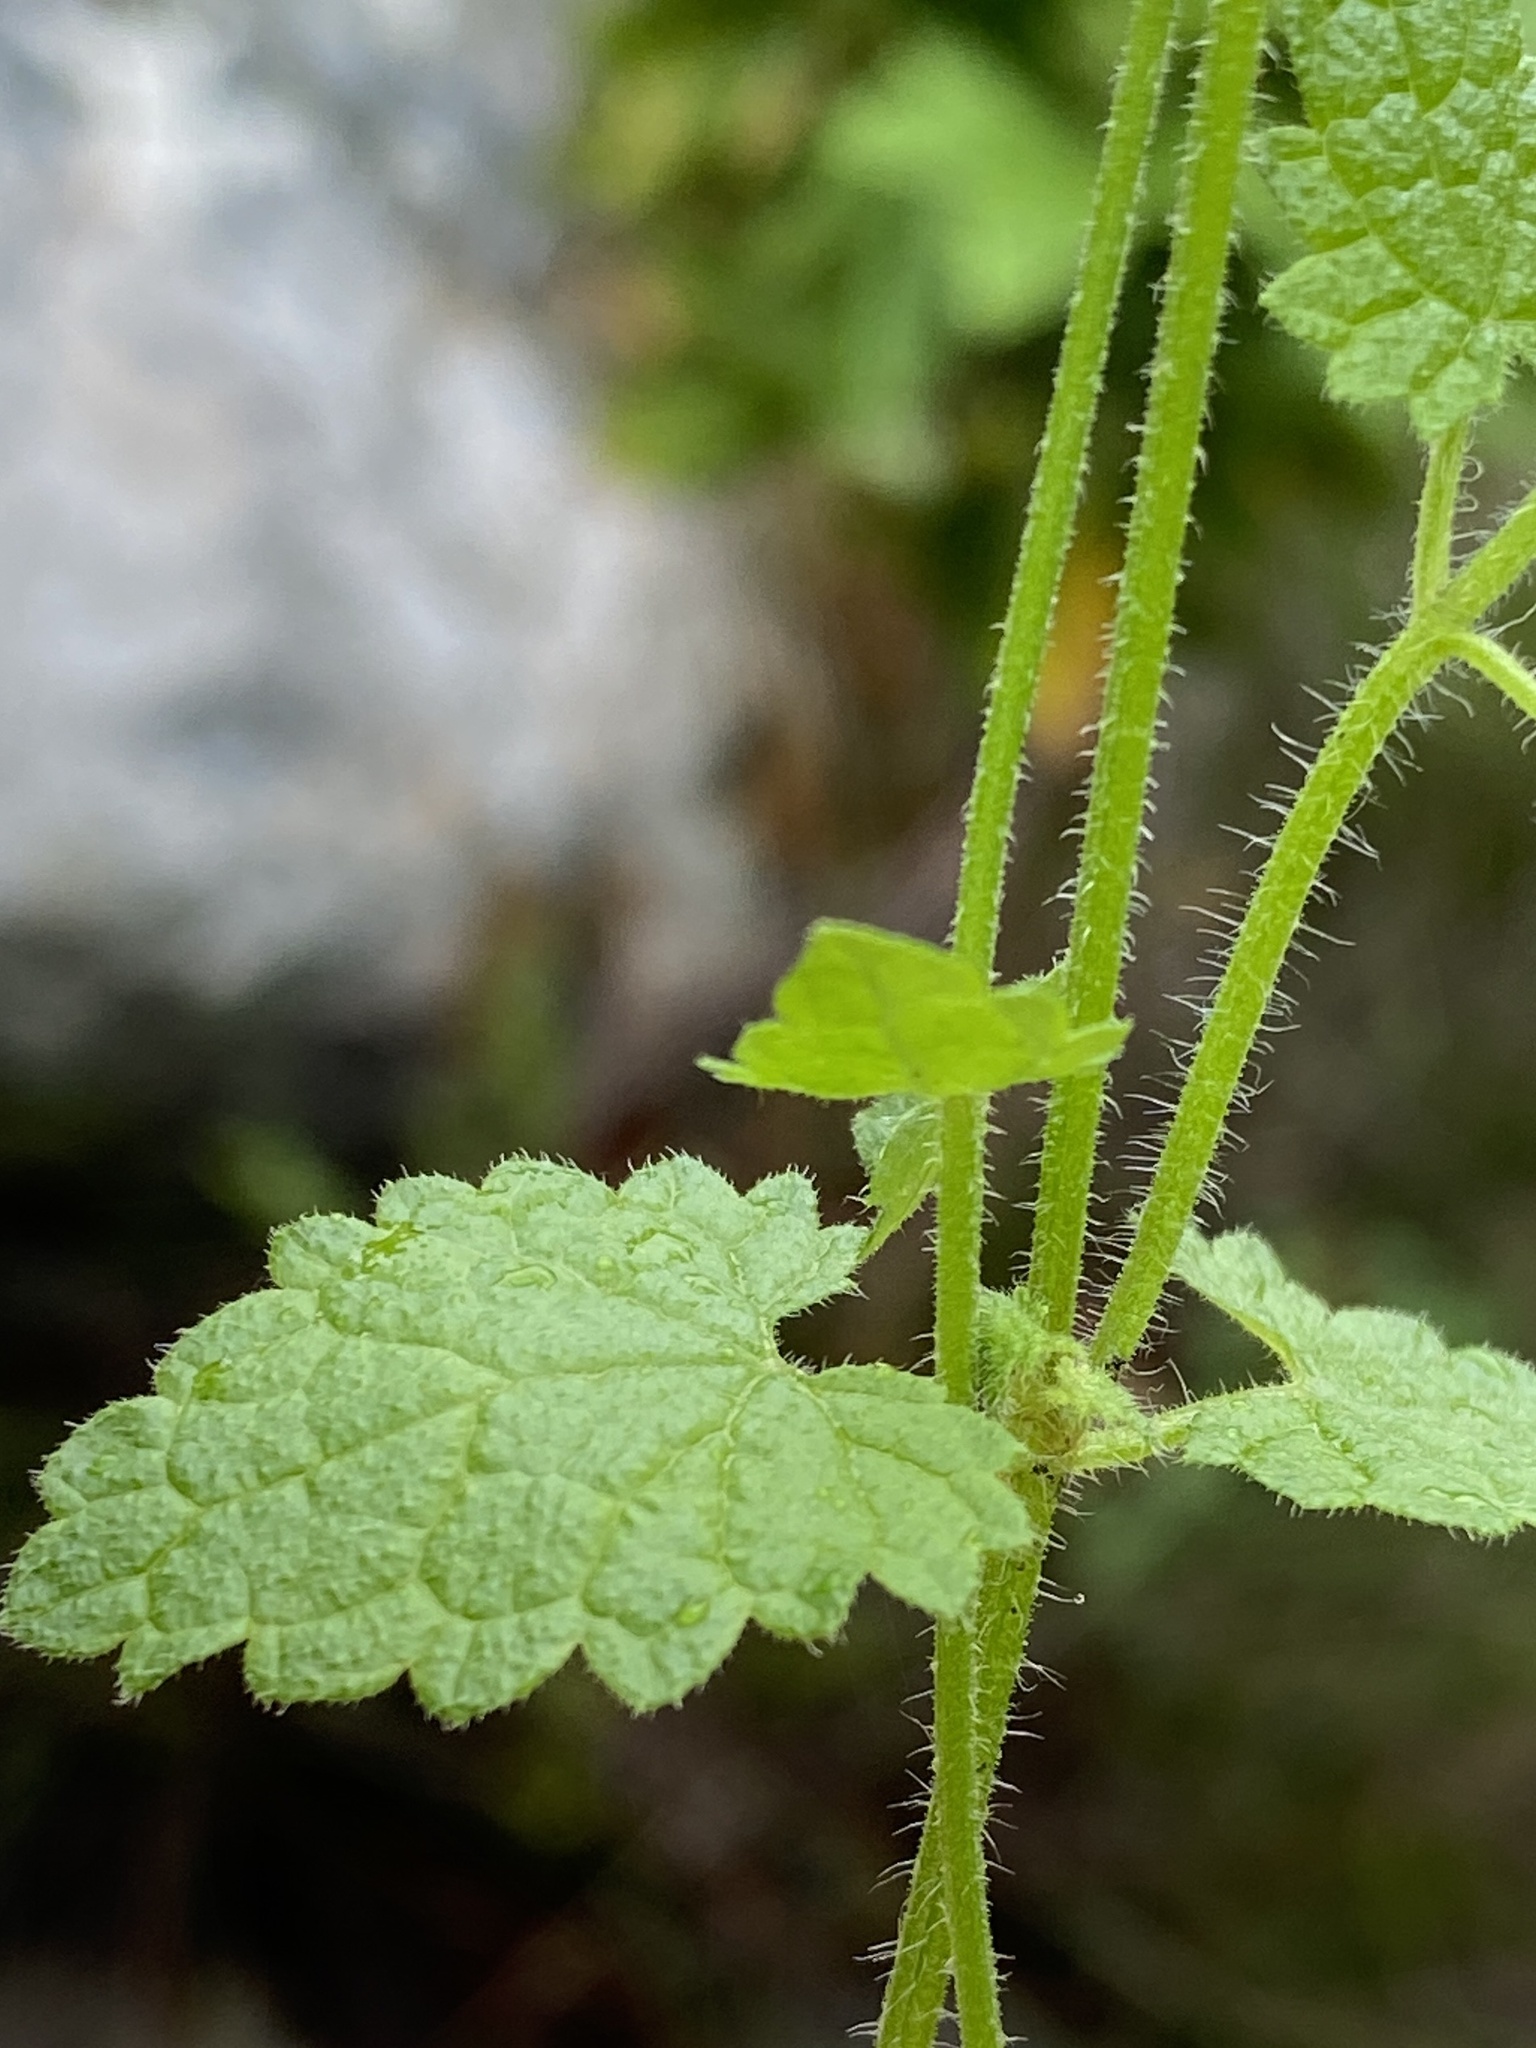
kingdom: Plantae
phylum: Tracheophyta
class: Magnoliopsida
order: Lamiales
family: Lamiaceae
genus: Stachys
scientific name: Stachys aethiopica
